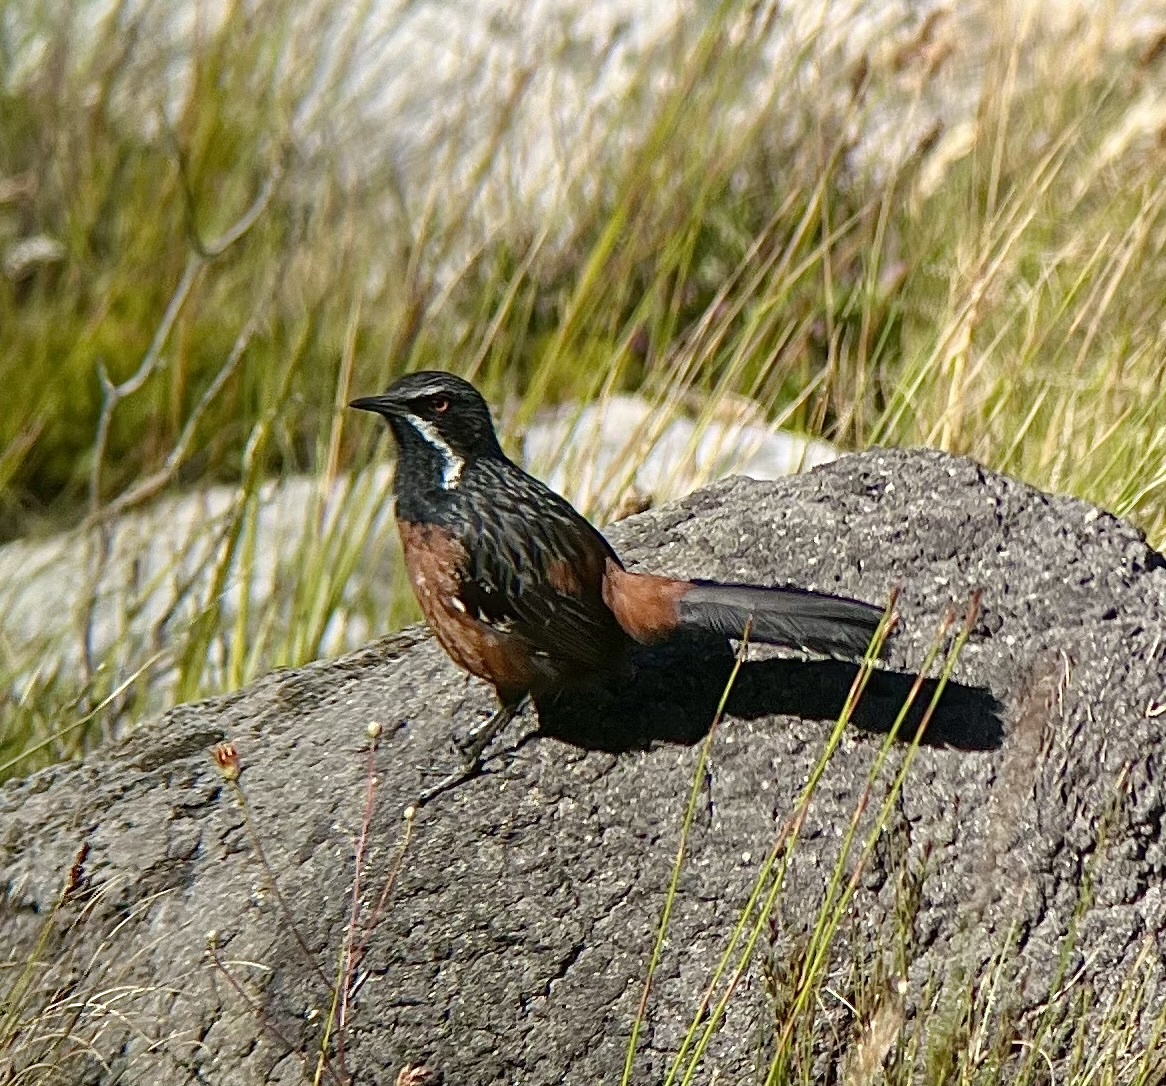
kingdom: Animalia
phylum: Chordata
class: Aves
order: Passeriformes
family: Chaetopidae
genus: Chaetops
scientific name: Chaetops frenatus
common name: Cape rockjumper
